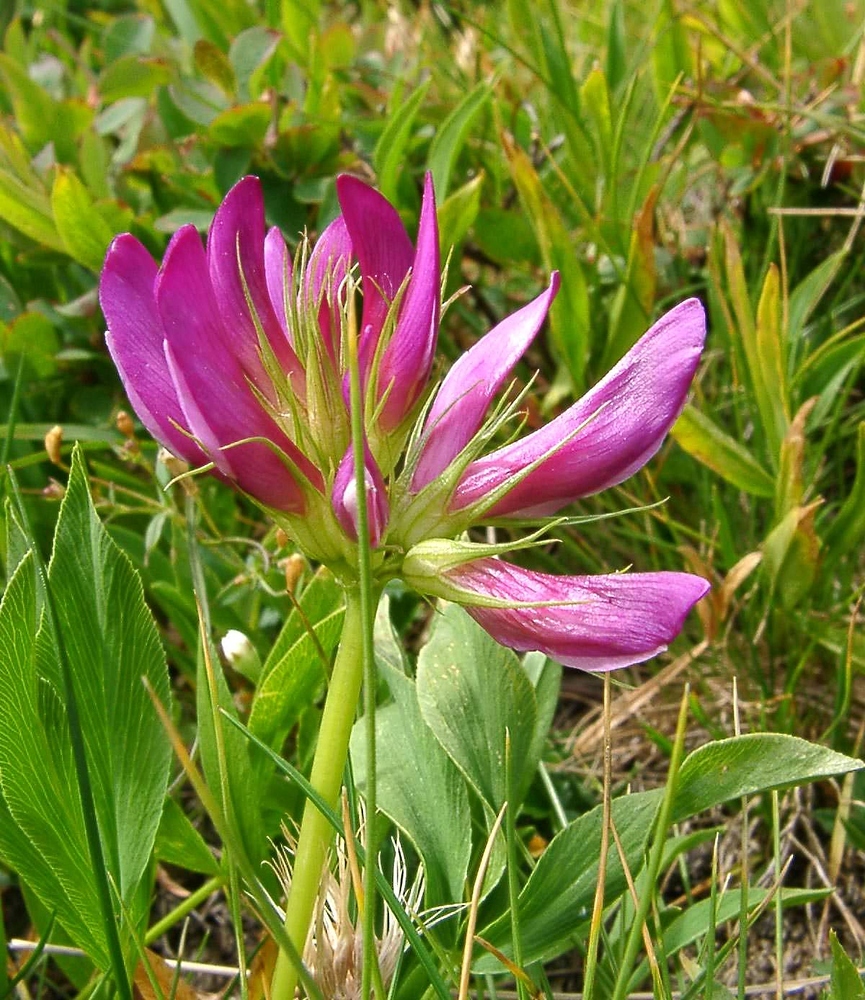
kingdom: Plantae
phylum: Tracheophyta
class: Magnoliopsida
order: Fabales
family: Fabaceae
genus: Trifolium
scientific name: Trifolium alpinum
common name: Alpine clover
